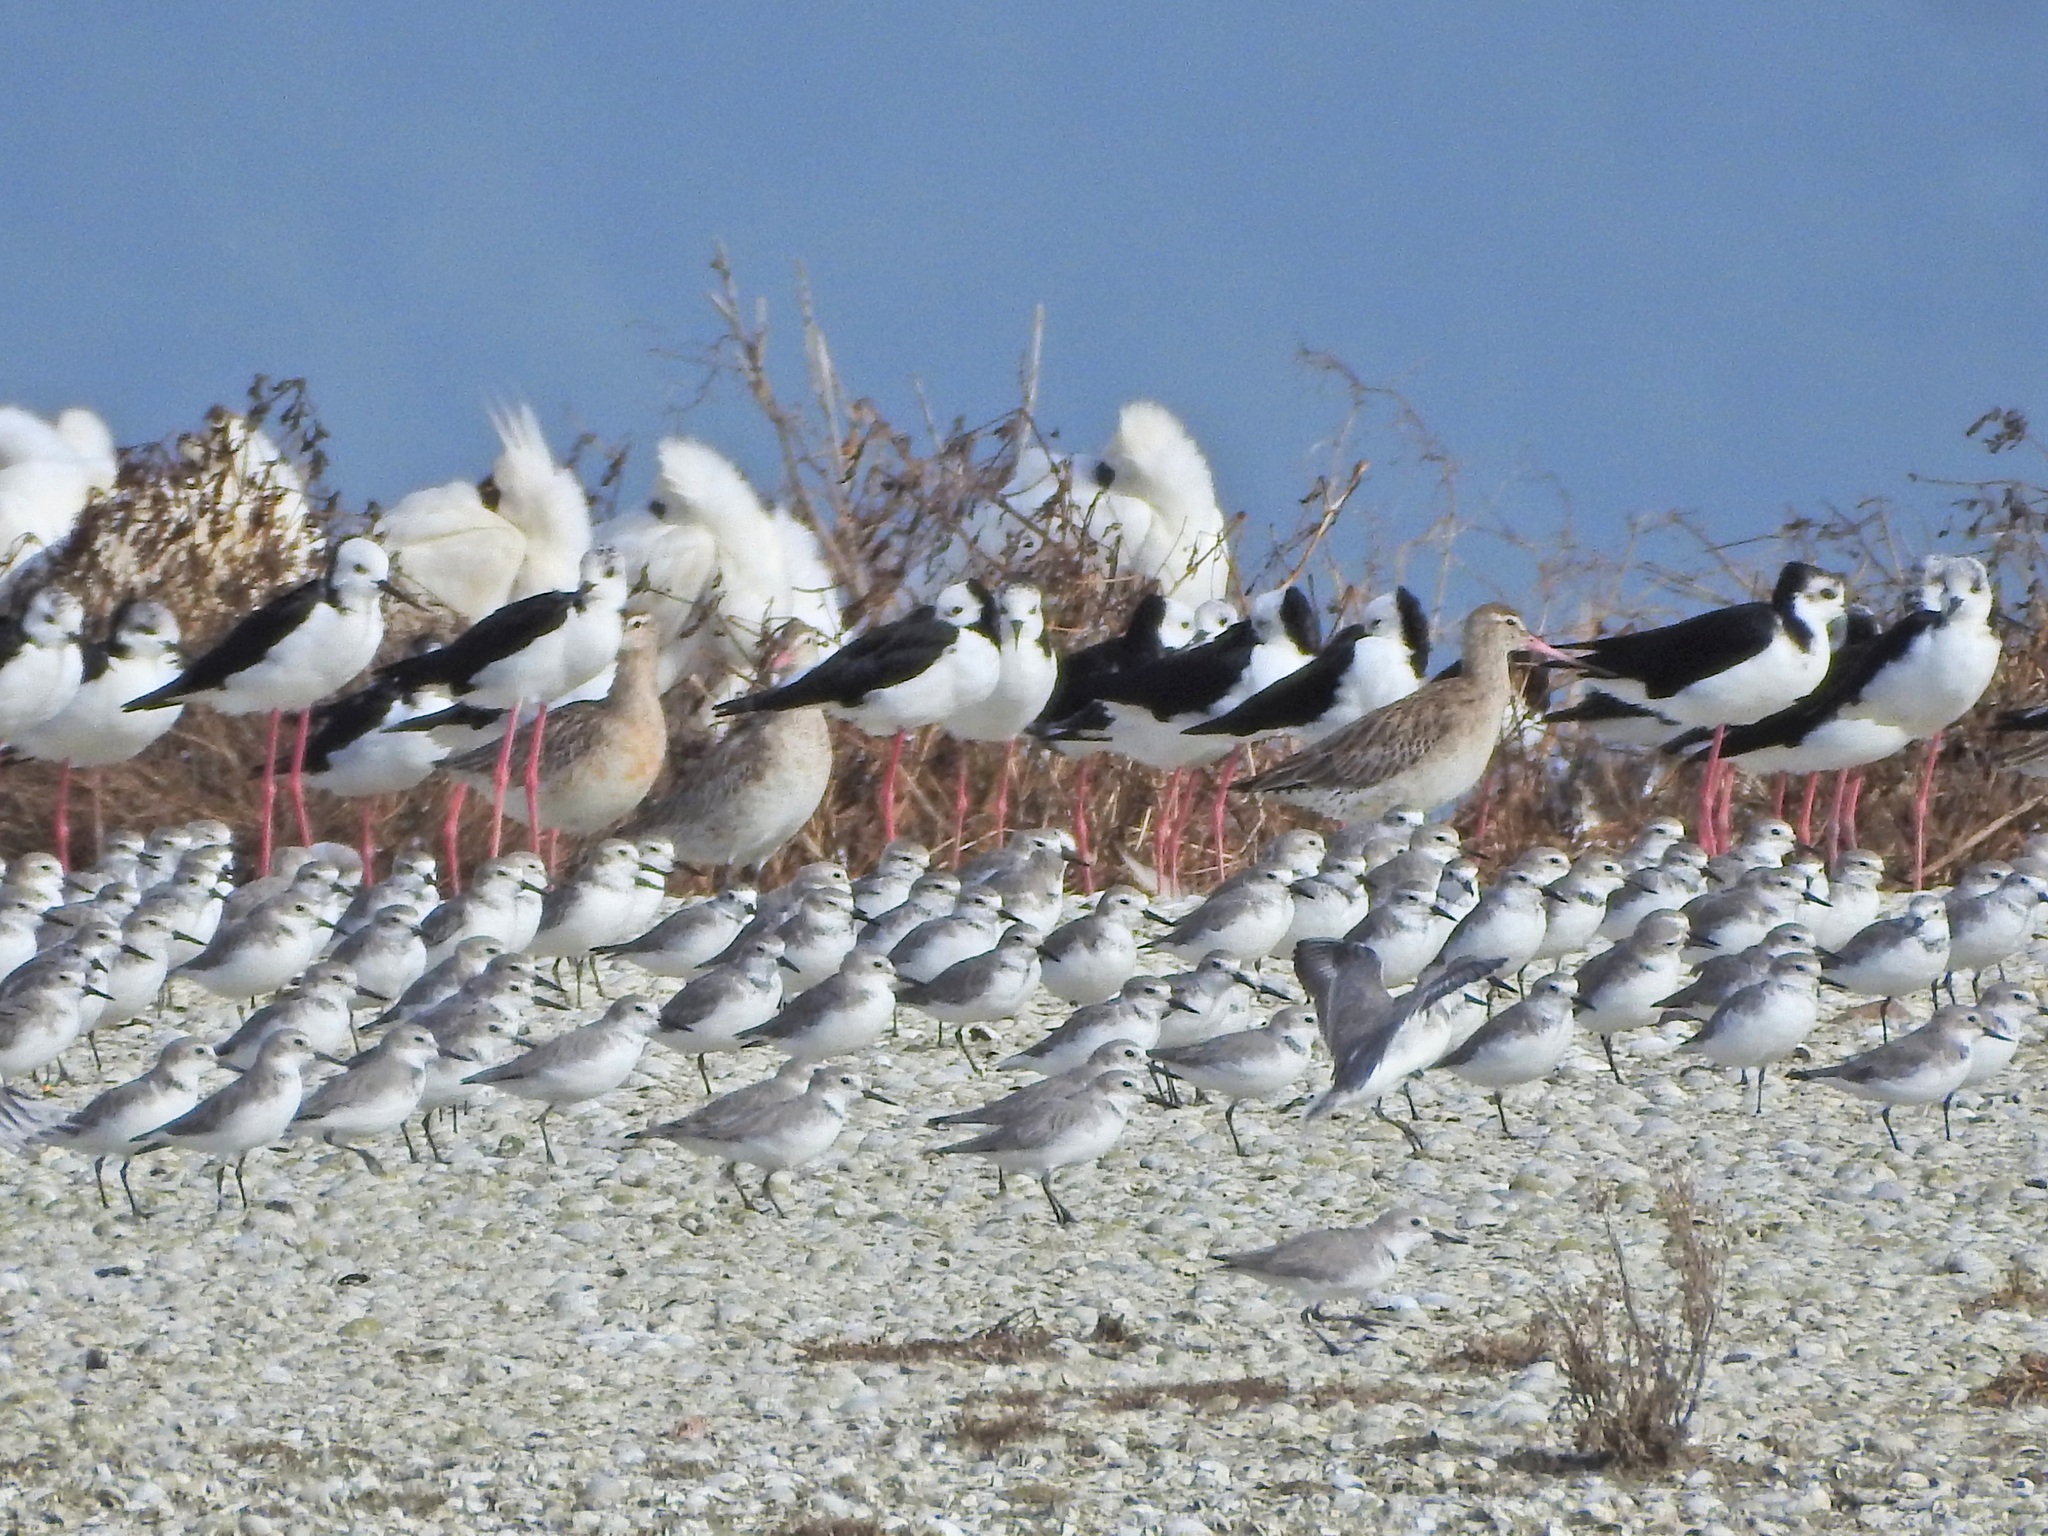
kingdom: Animalia
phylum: Chordata
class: Aves
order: Charadriiformes
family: Charadriidae
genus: Anarhynchus
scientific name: Anarhynchus frontalis
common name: Wrybill
